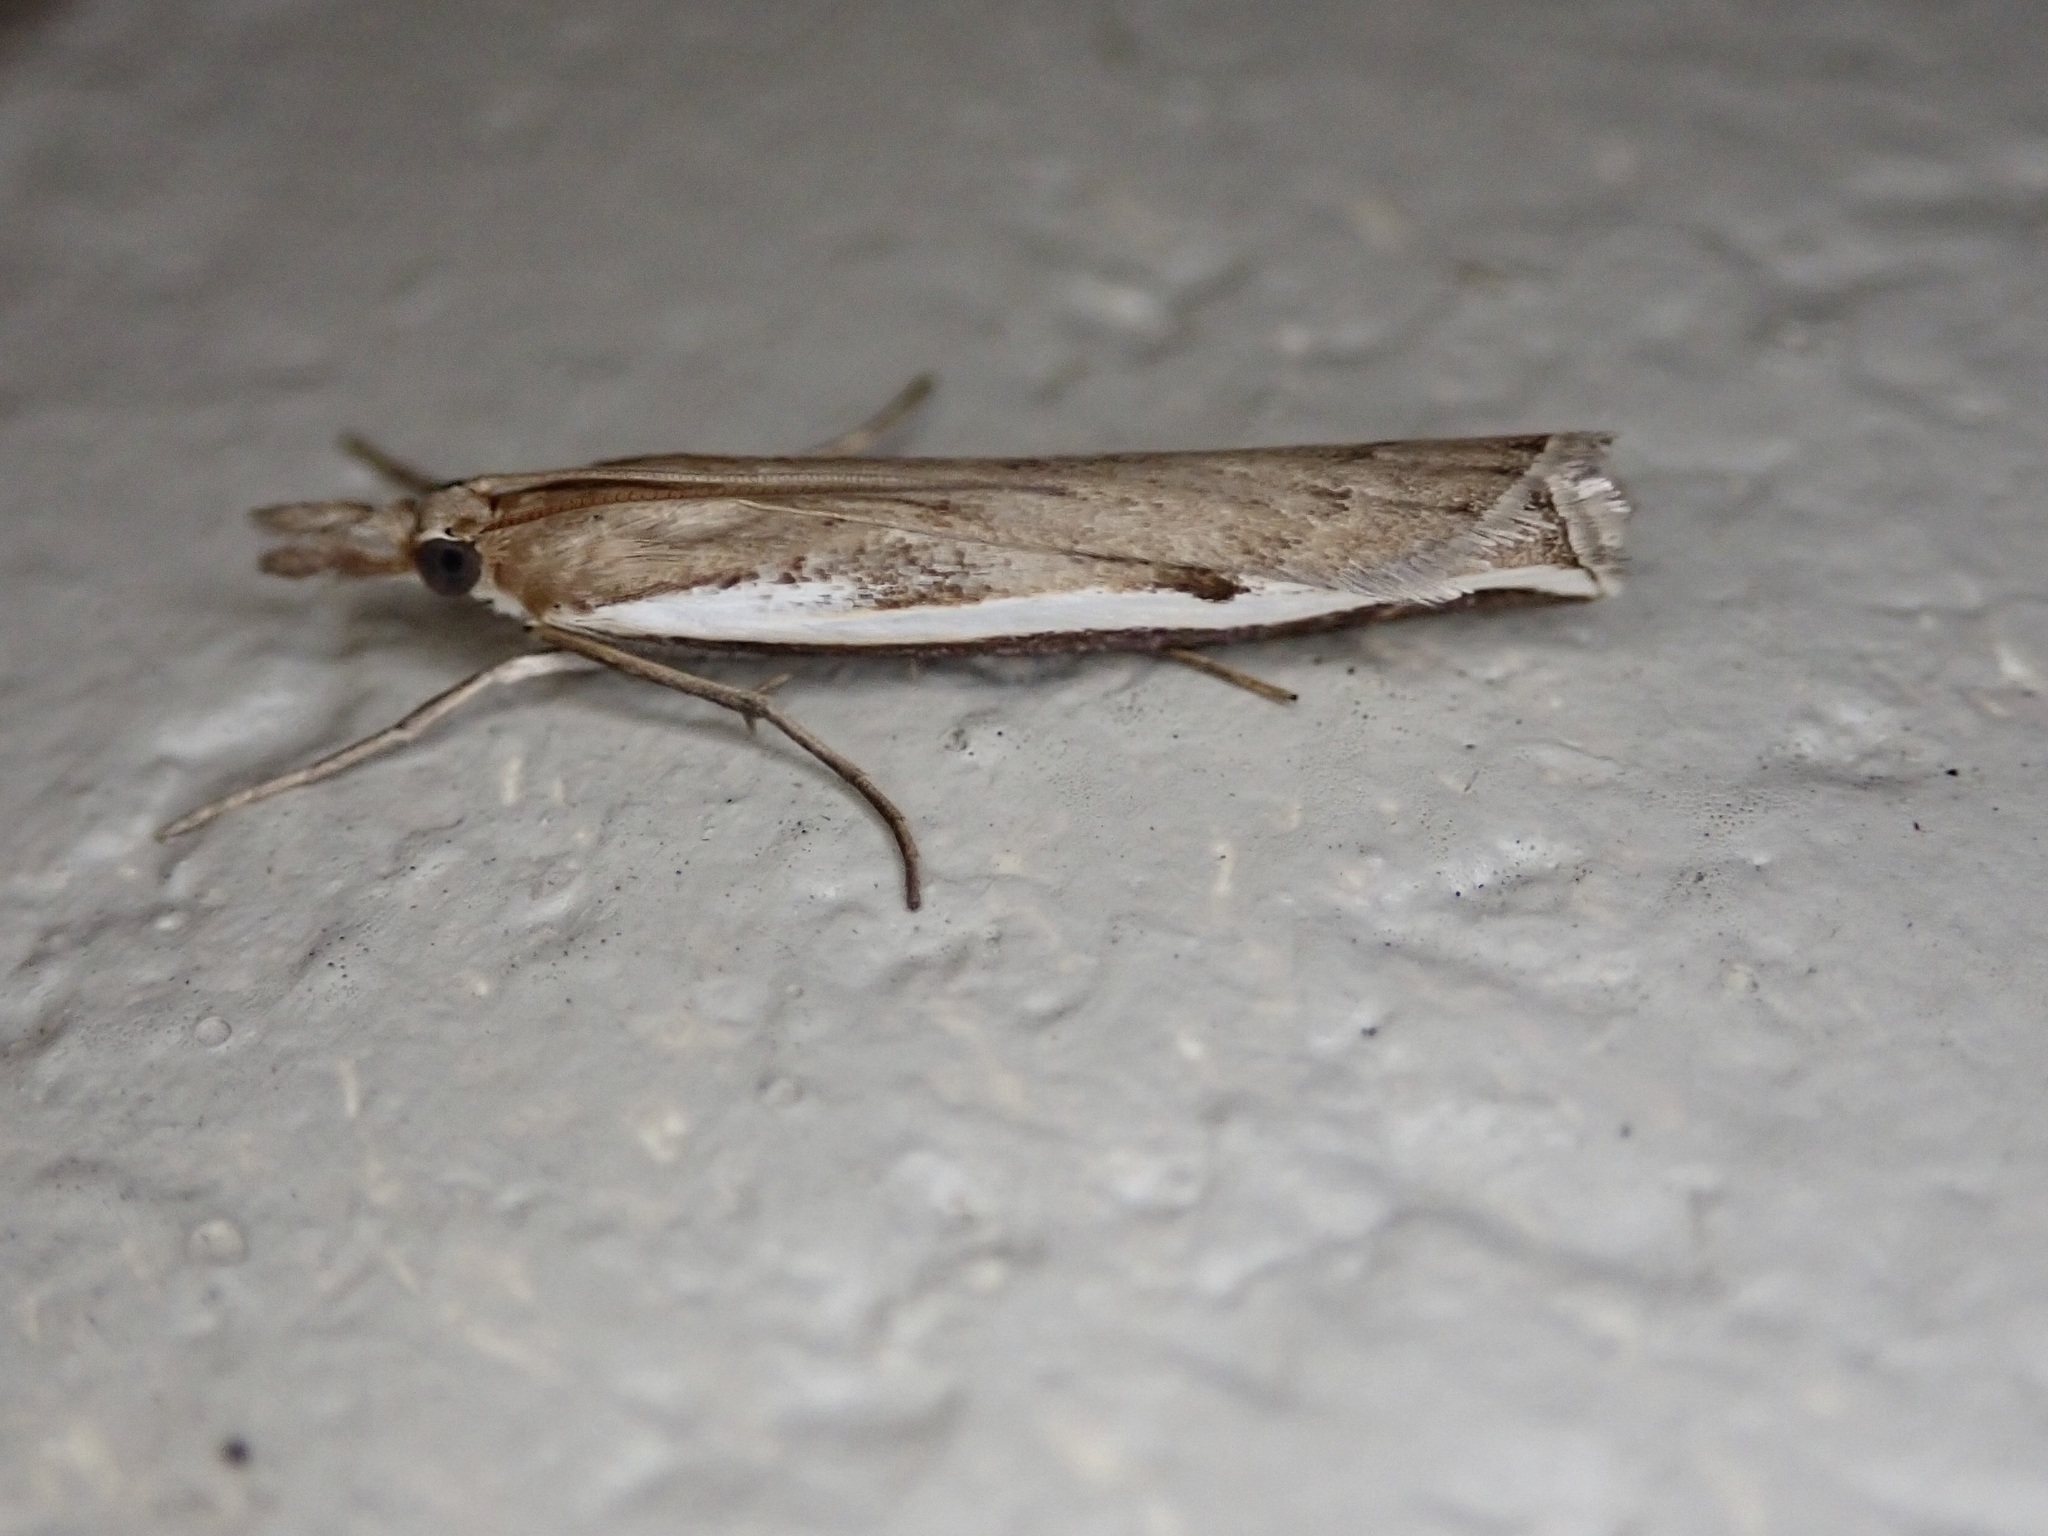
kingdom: Animalia
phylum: Arthropoda
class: Insecta
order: Lepidoptera
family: Crambidae
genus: Orocrambus
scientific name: Orocrambus flexuosellus
